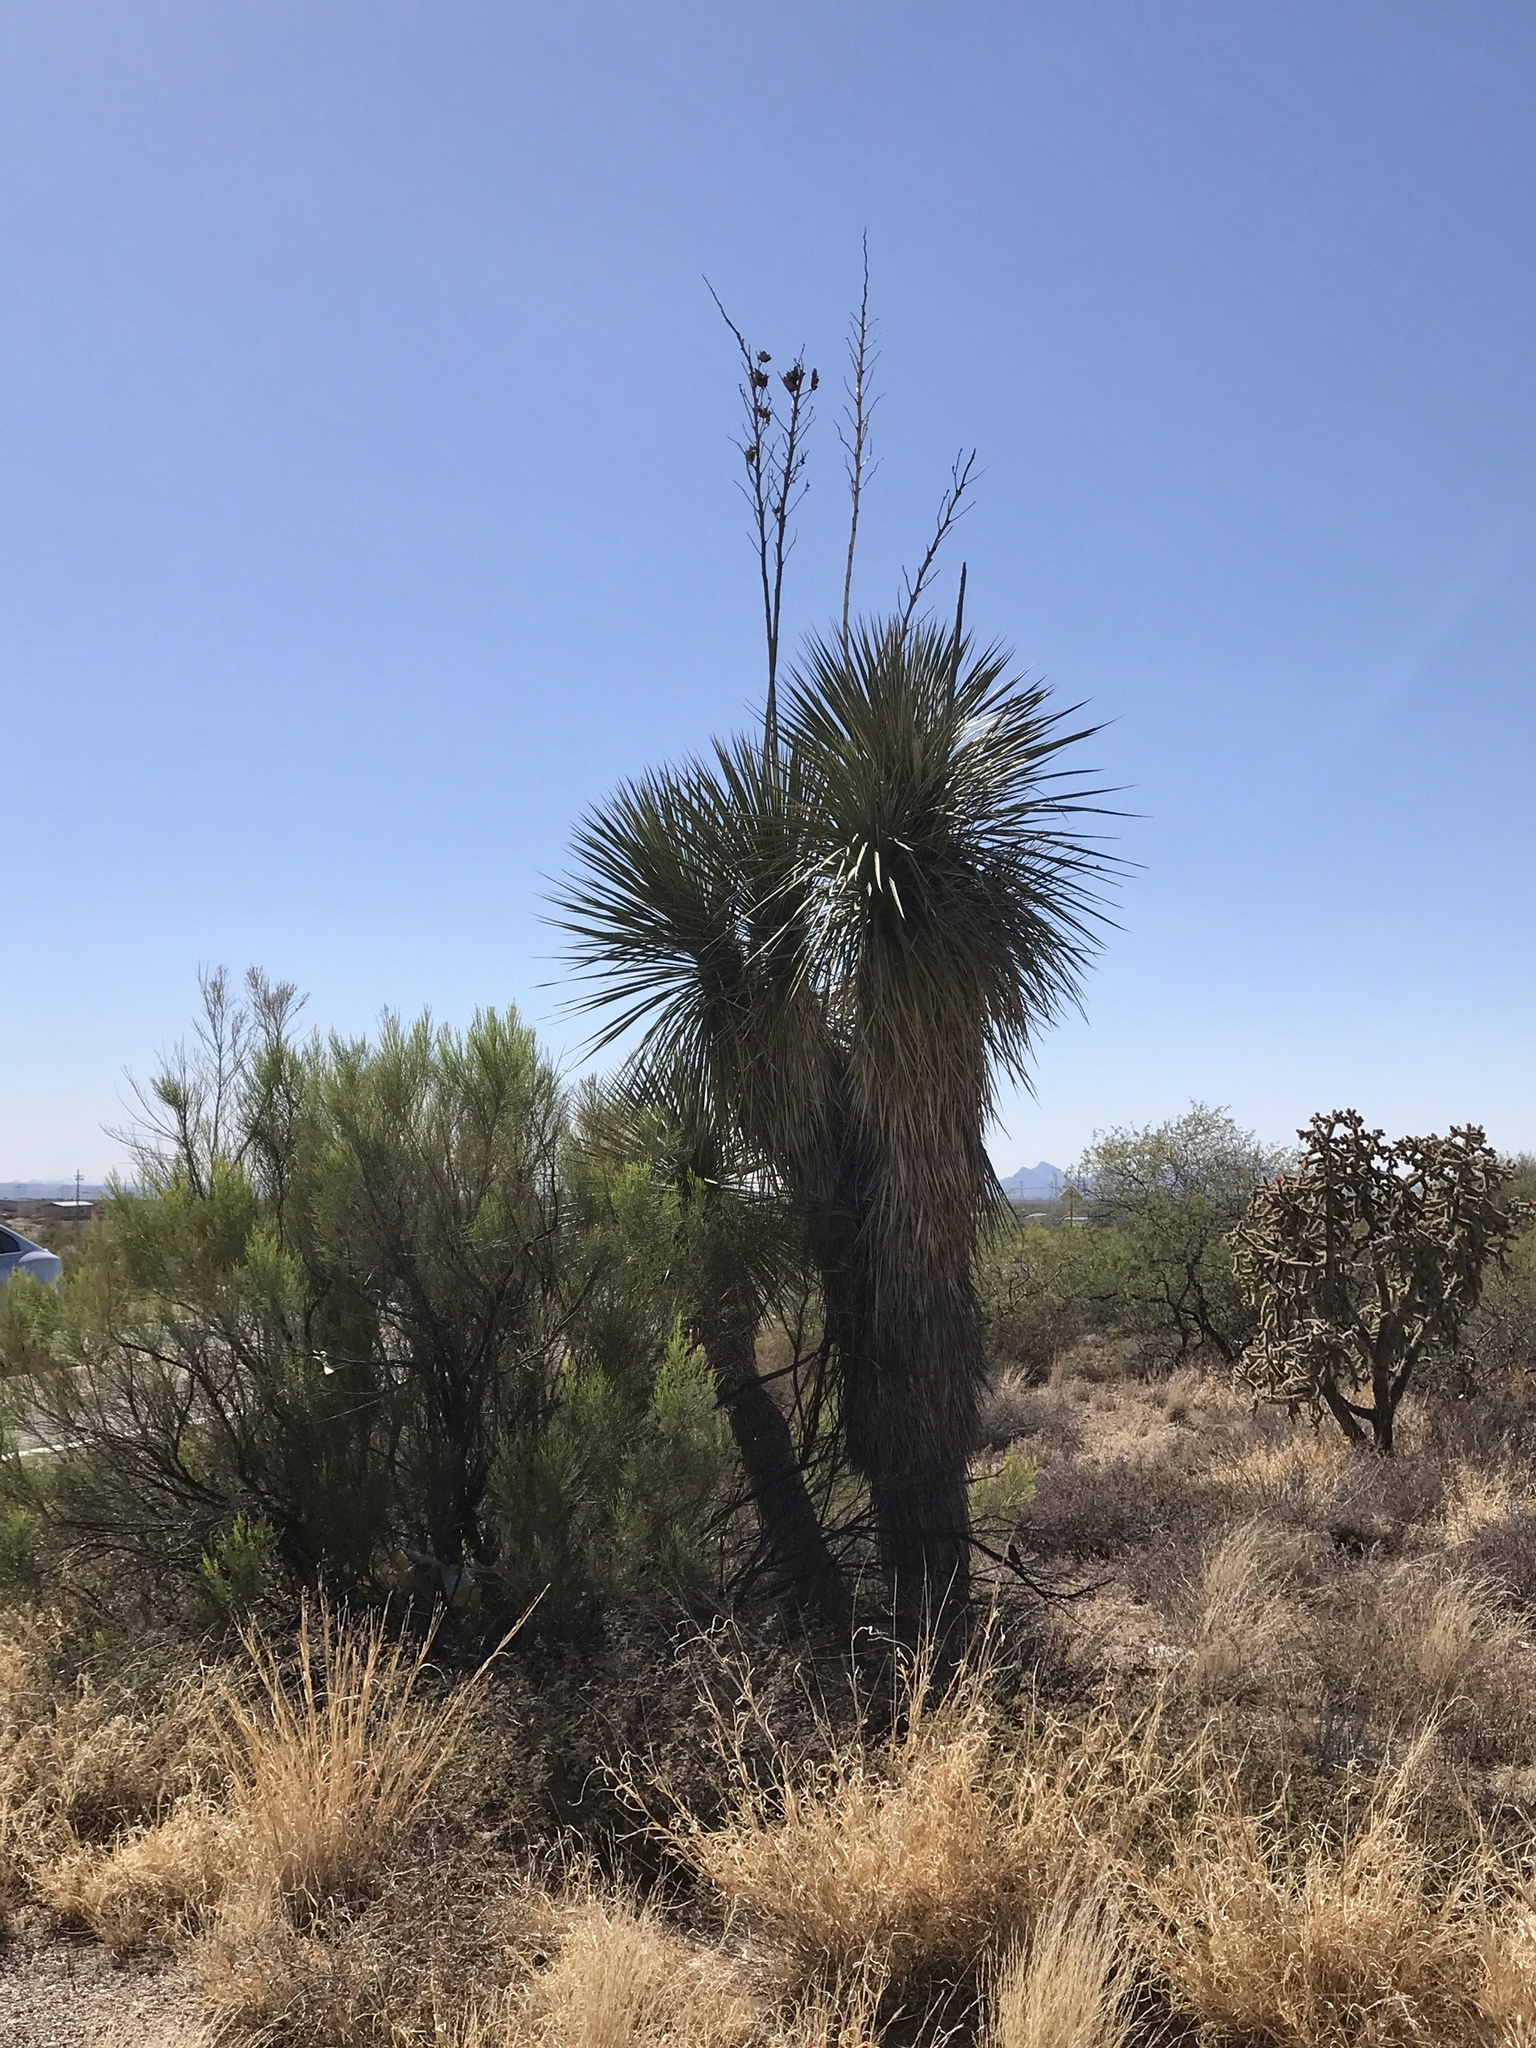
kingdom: Plantae
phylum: Tracheophyta
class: Liliopsida
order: Asparagales
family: Asparagaceae
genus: Yucca
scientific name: Yucca elata
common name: Palmella
